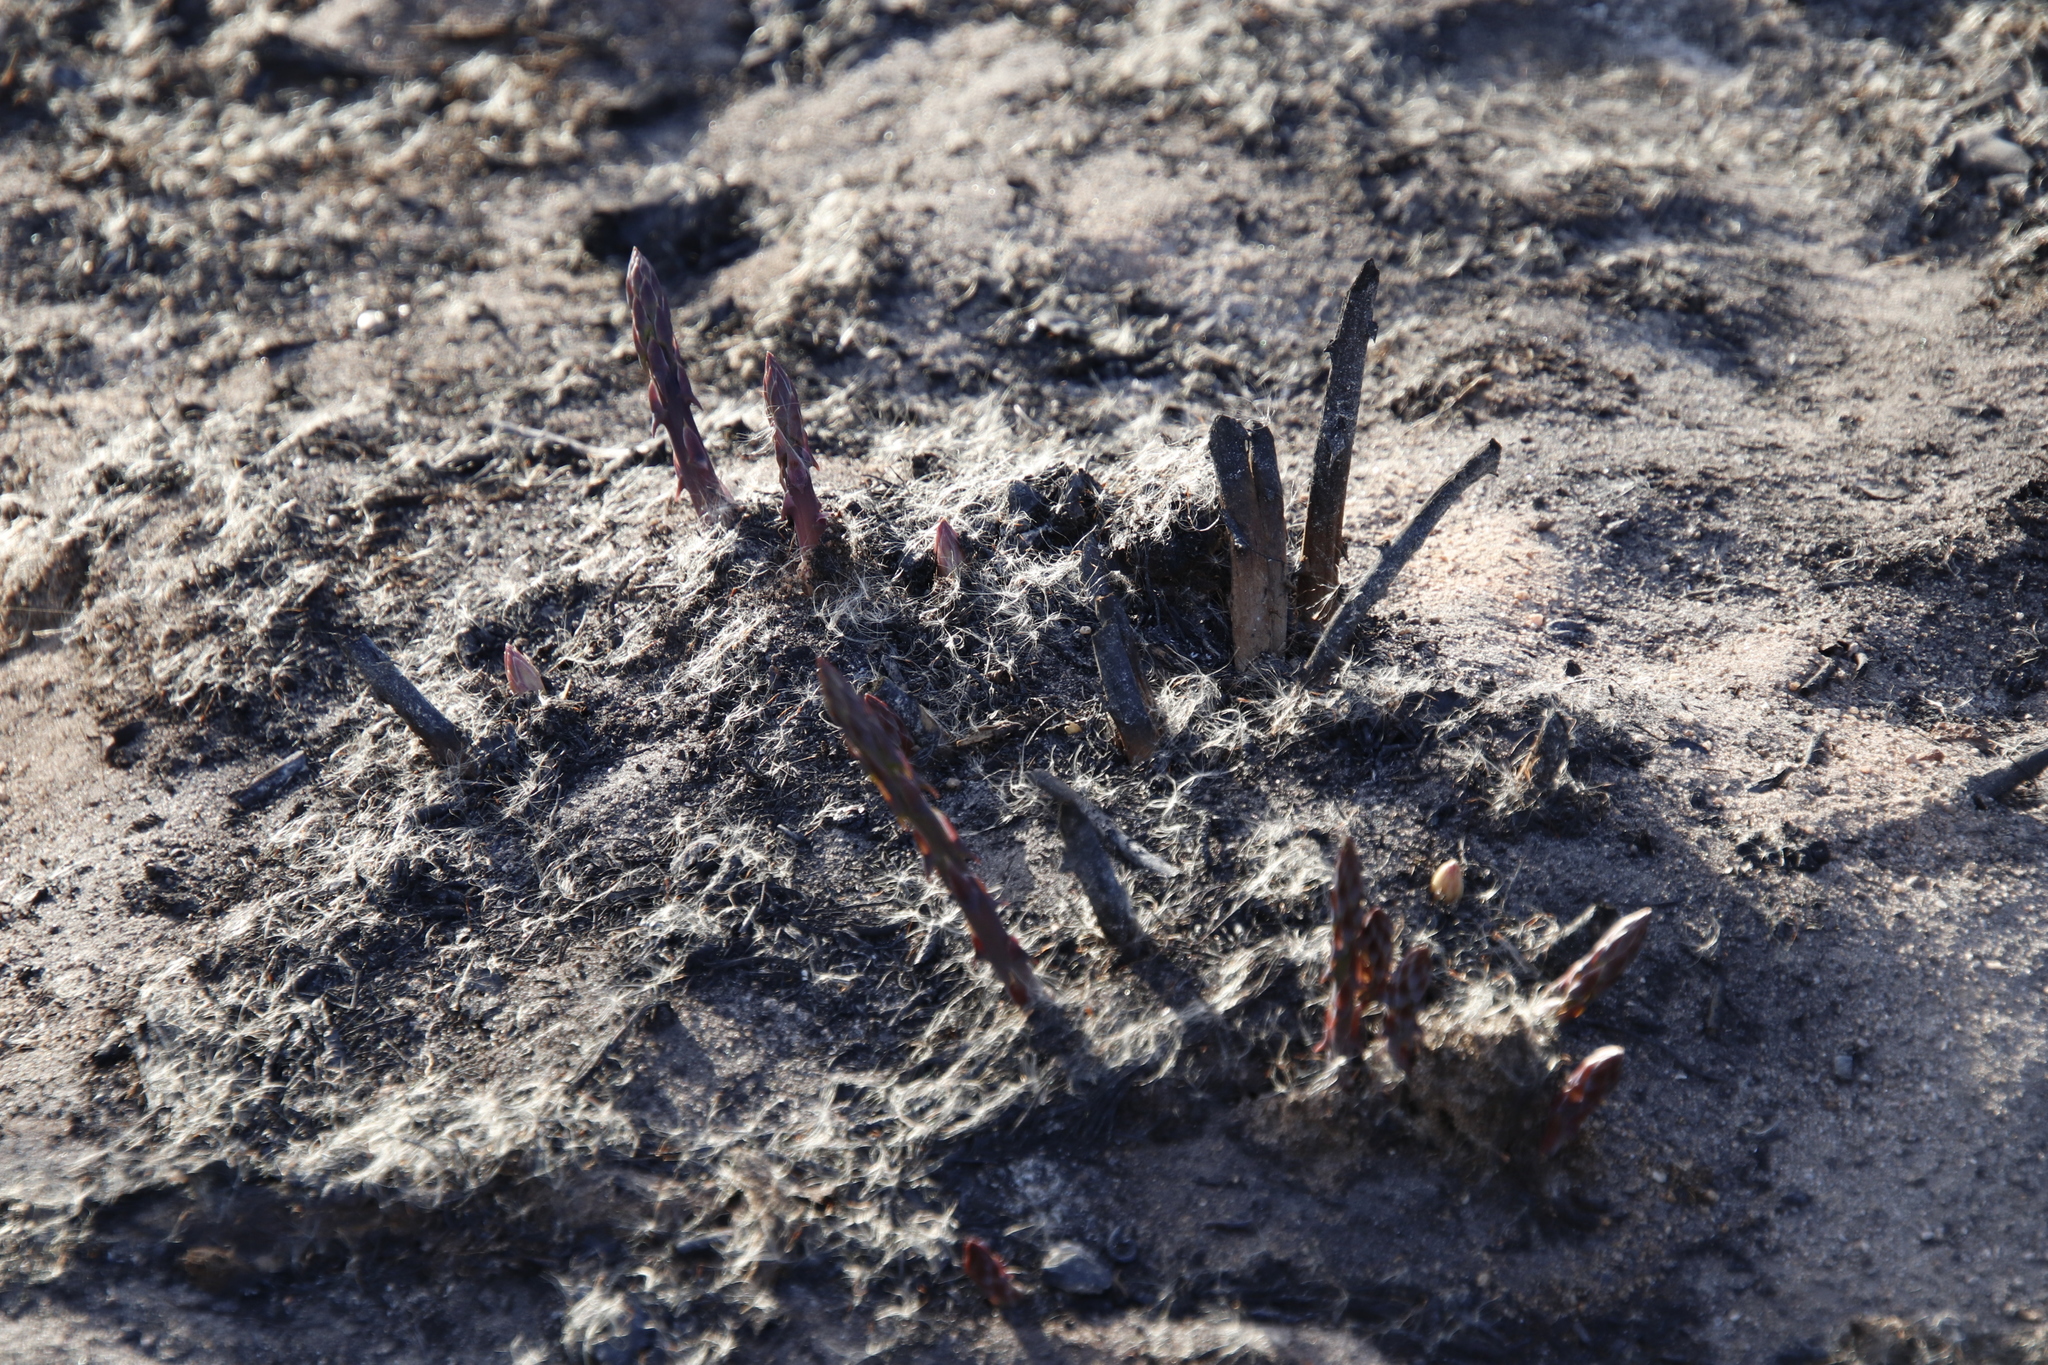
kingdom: Plantae
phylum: Tracheophyta
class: Liliopsida
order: Asparagales
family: Asparagaceae
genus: Asparagus
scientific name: Asparagus rubicundus
